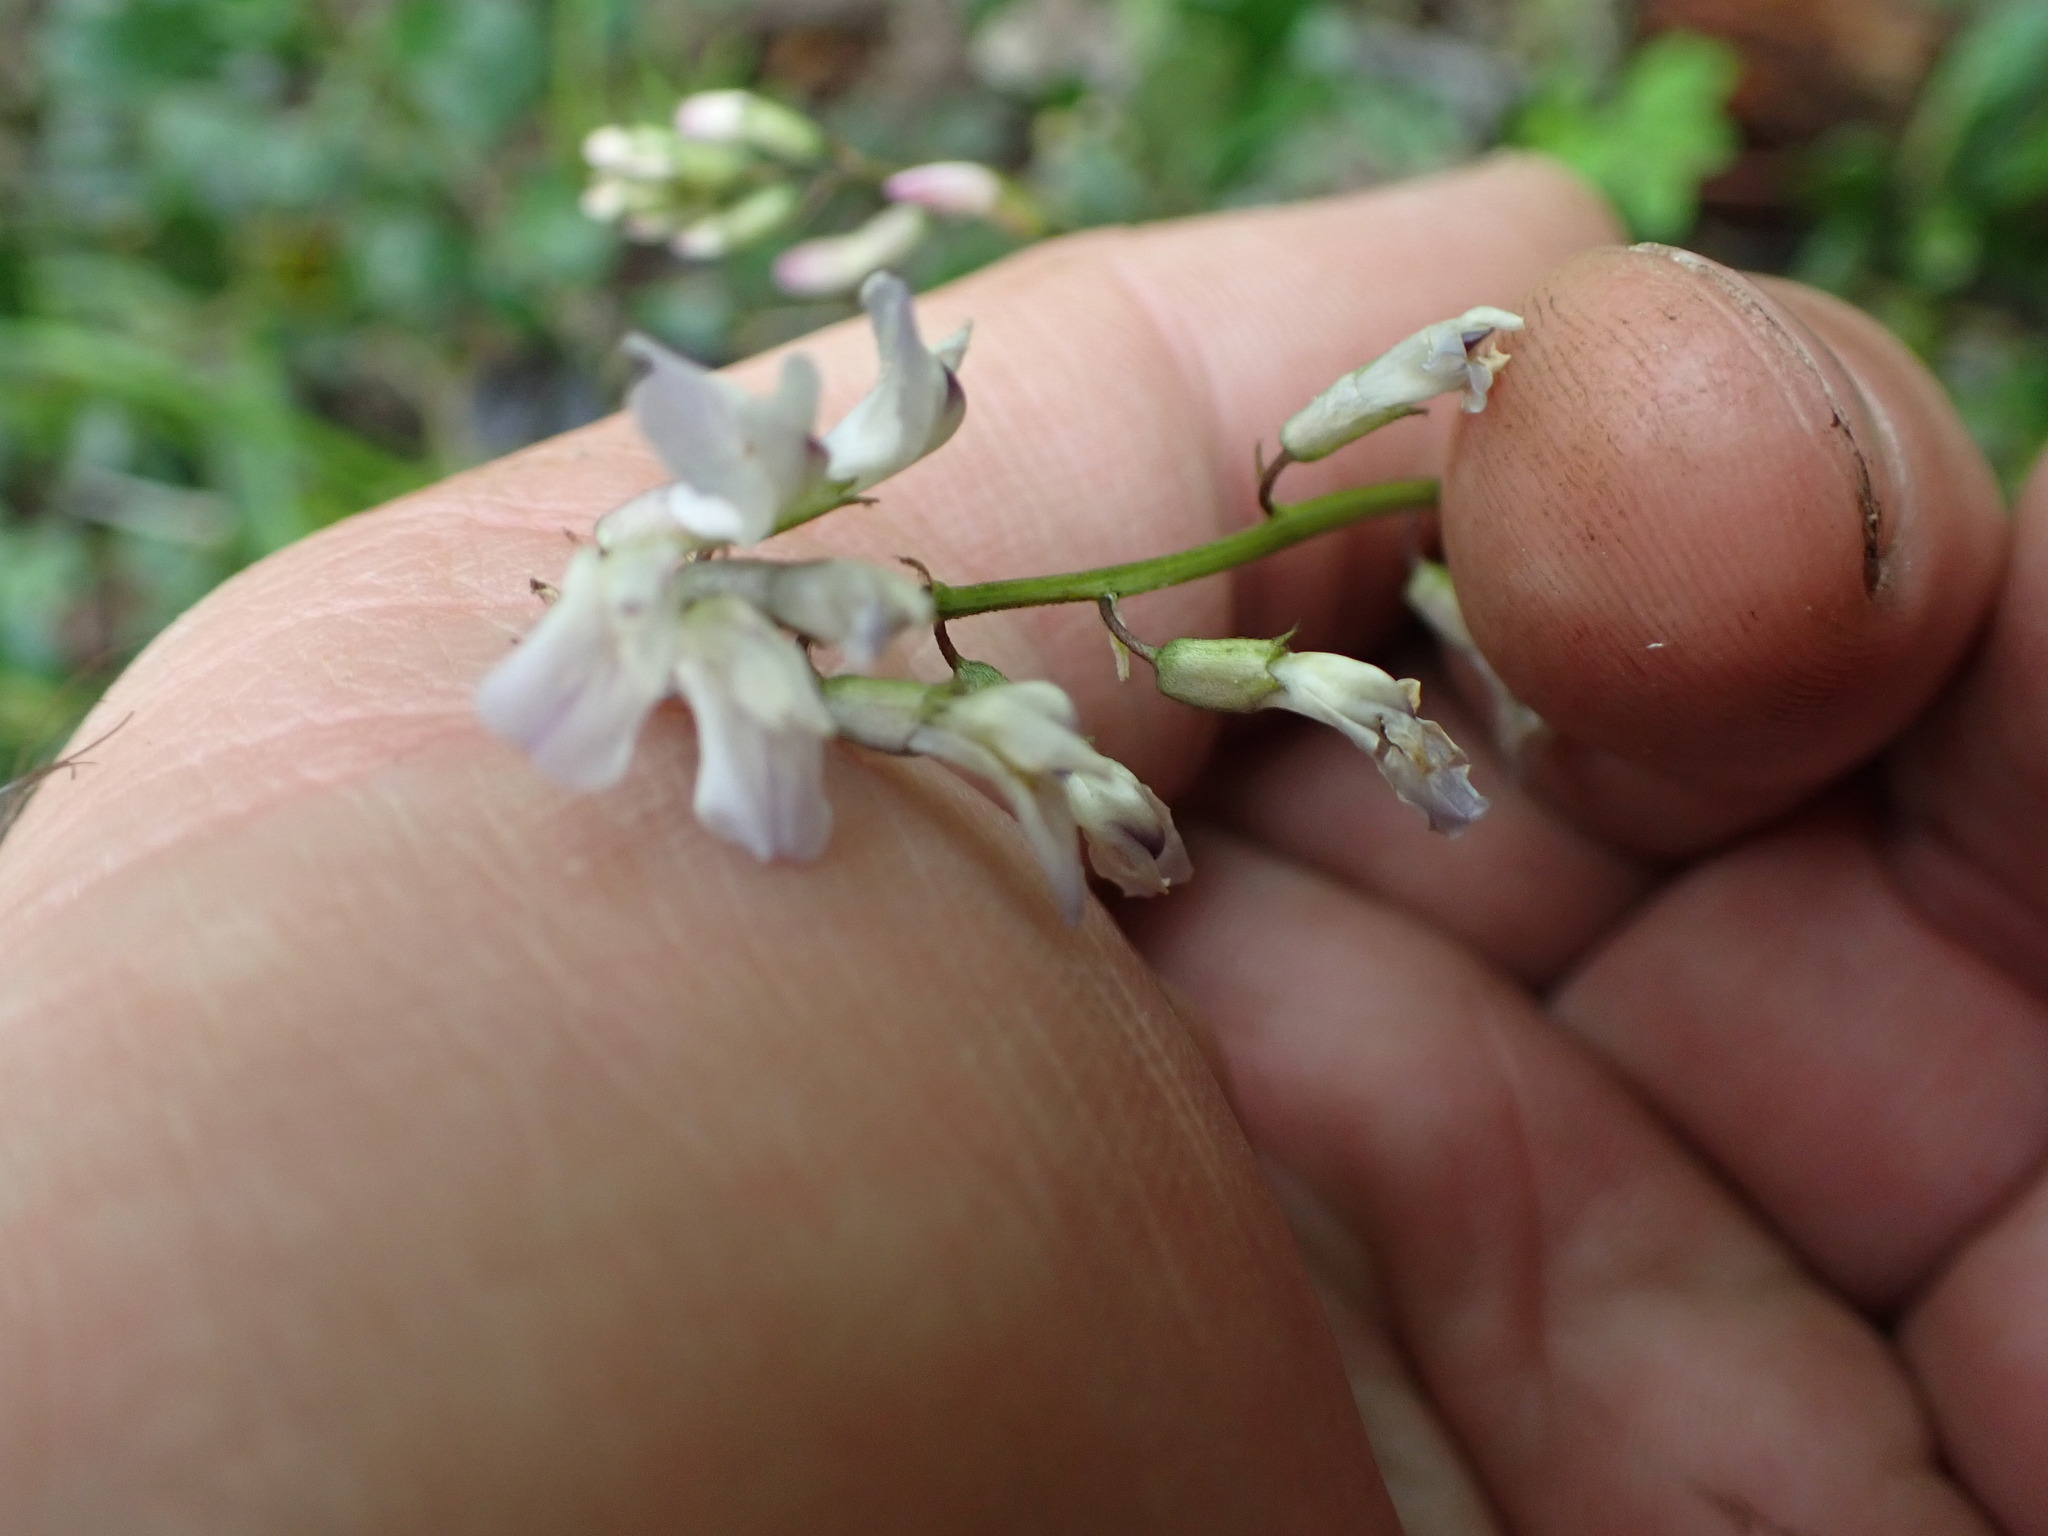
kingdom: Plantae
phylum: Tracheophyta
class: Magnoliopsida
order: Fabales
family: Fabaceae
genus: Astragalus
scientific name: Astragalus miser
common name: Timber milkvetch
